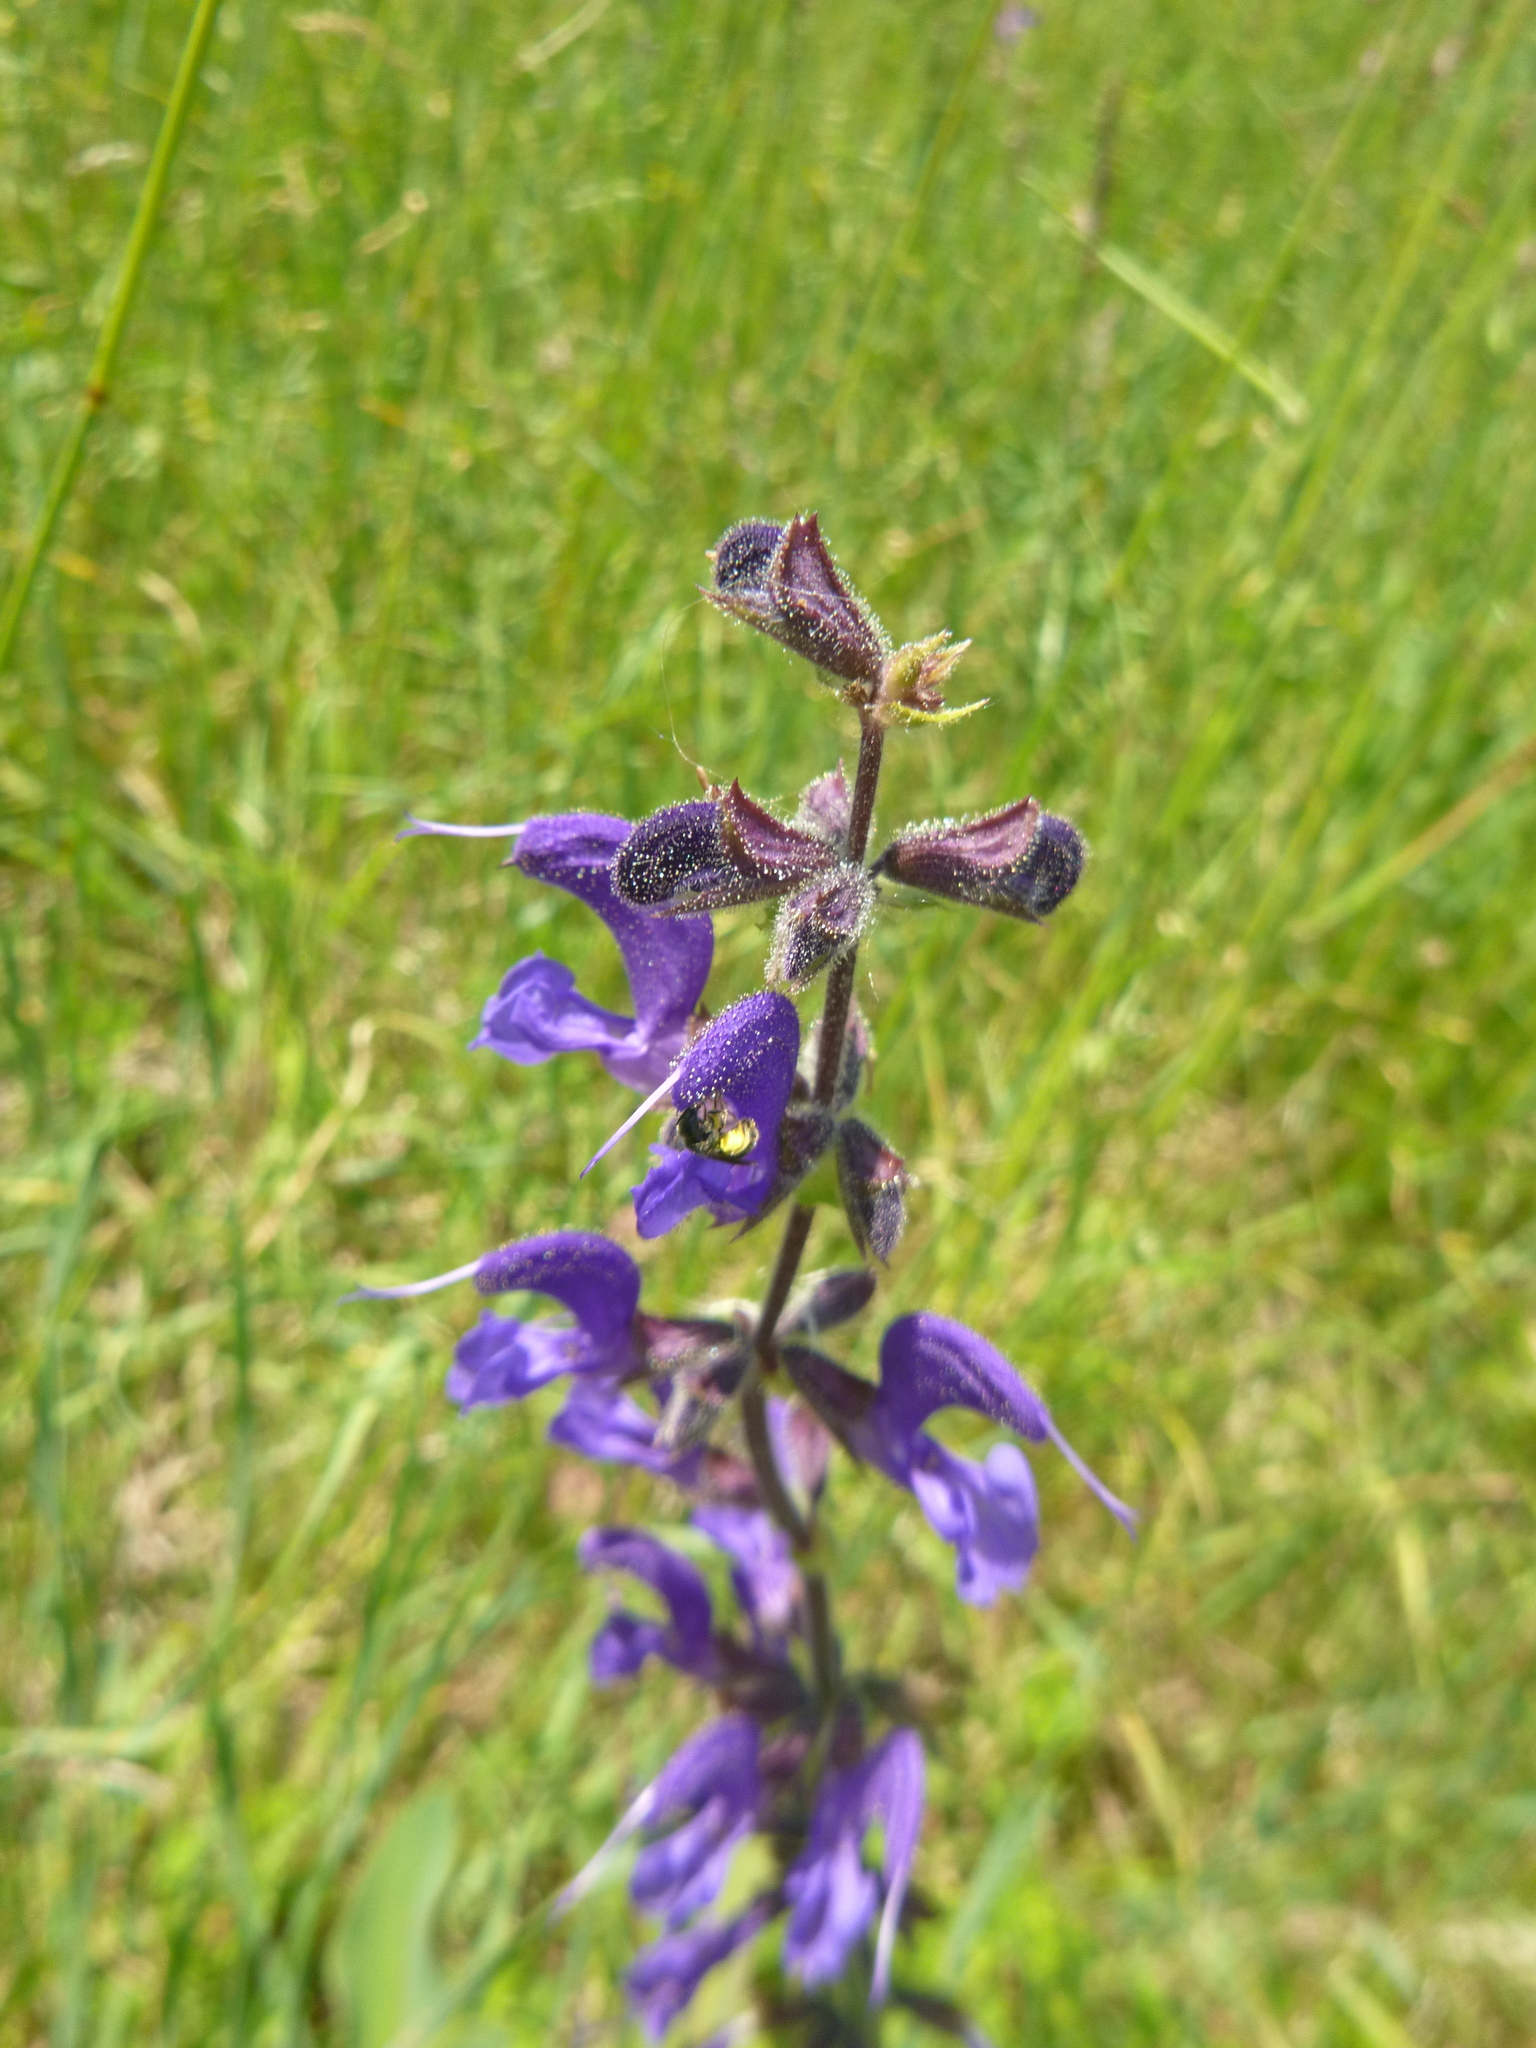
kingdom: Plantae
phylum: Tracheophyta
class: Magnoliopsida
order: Lamiales
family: Lamiaceae
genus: Salvia
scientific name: Salvia pratensis
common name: Meadow sage
